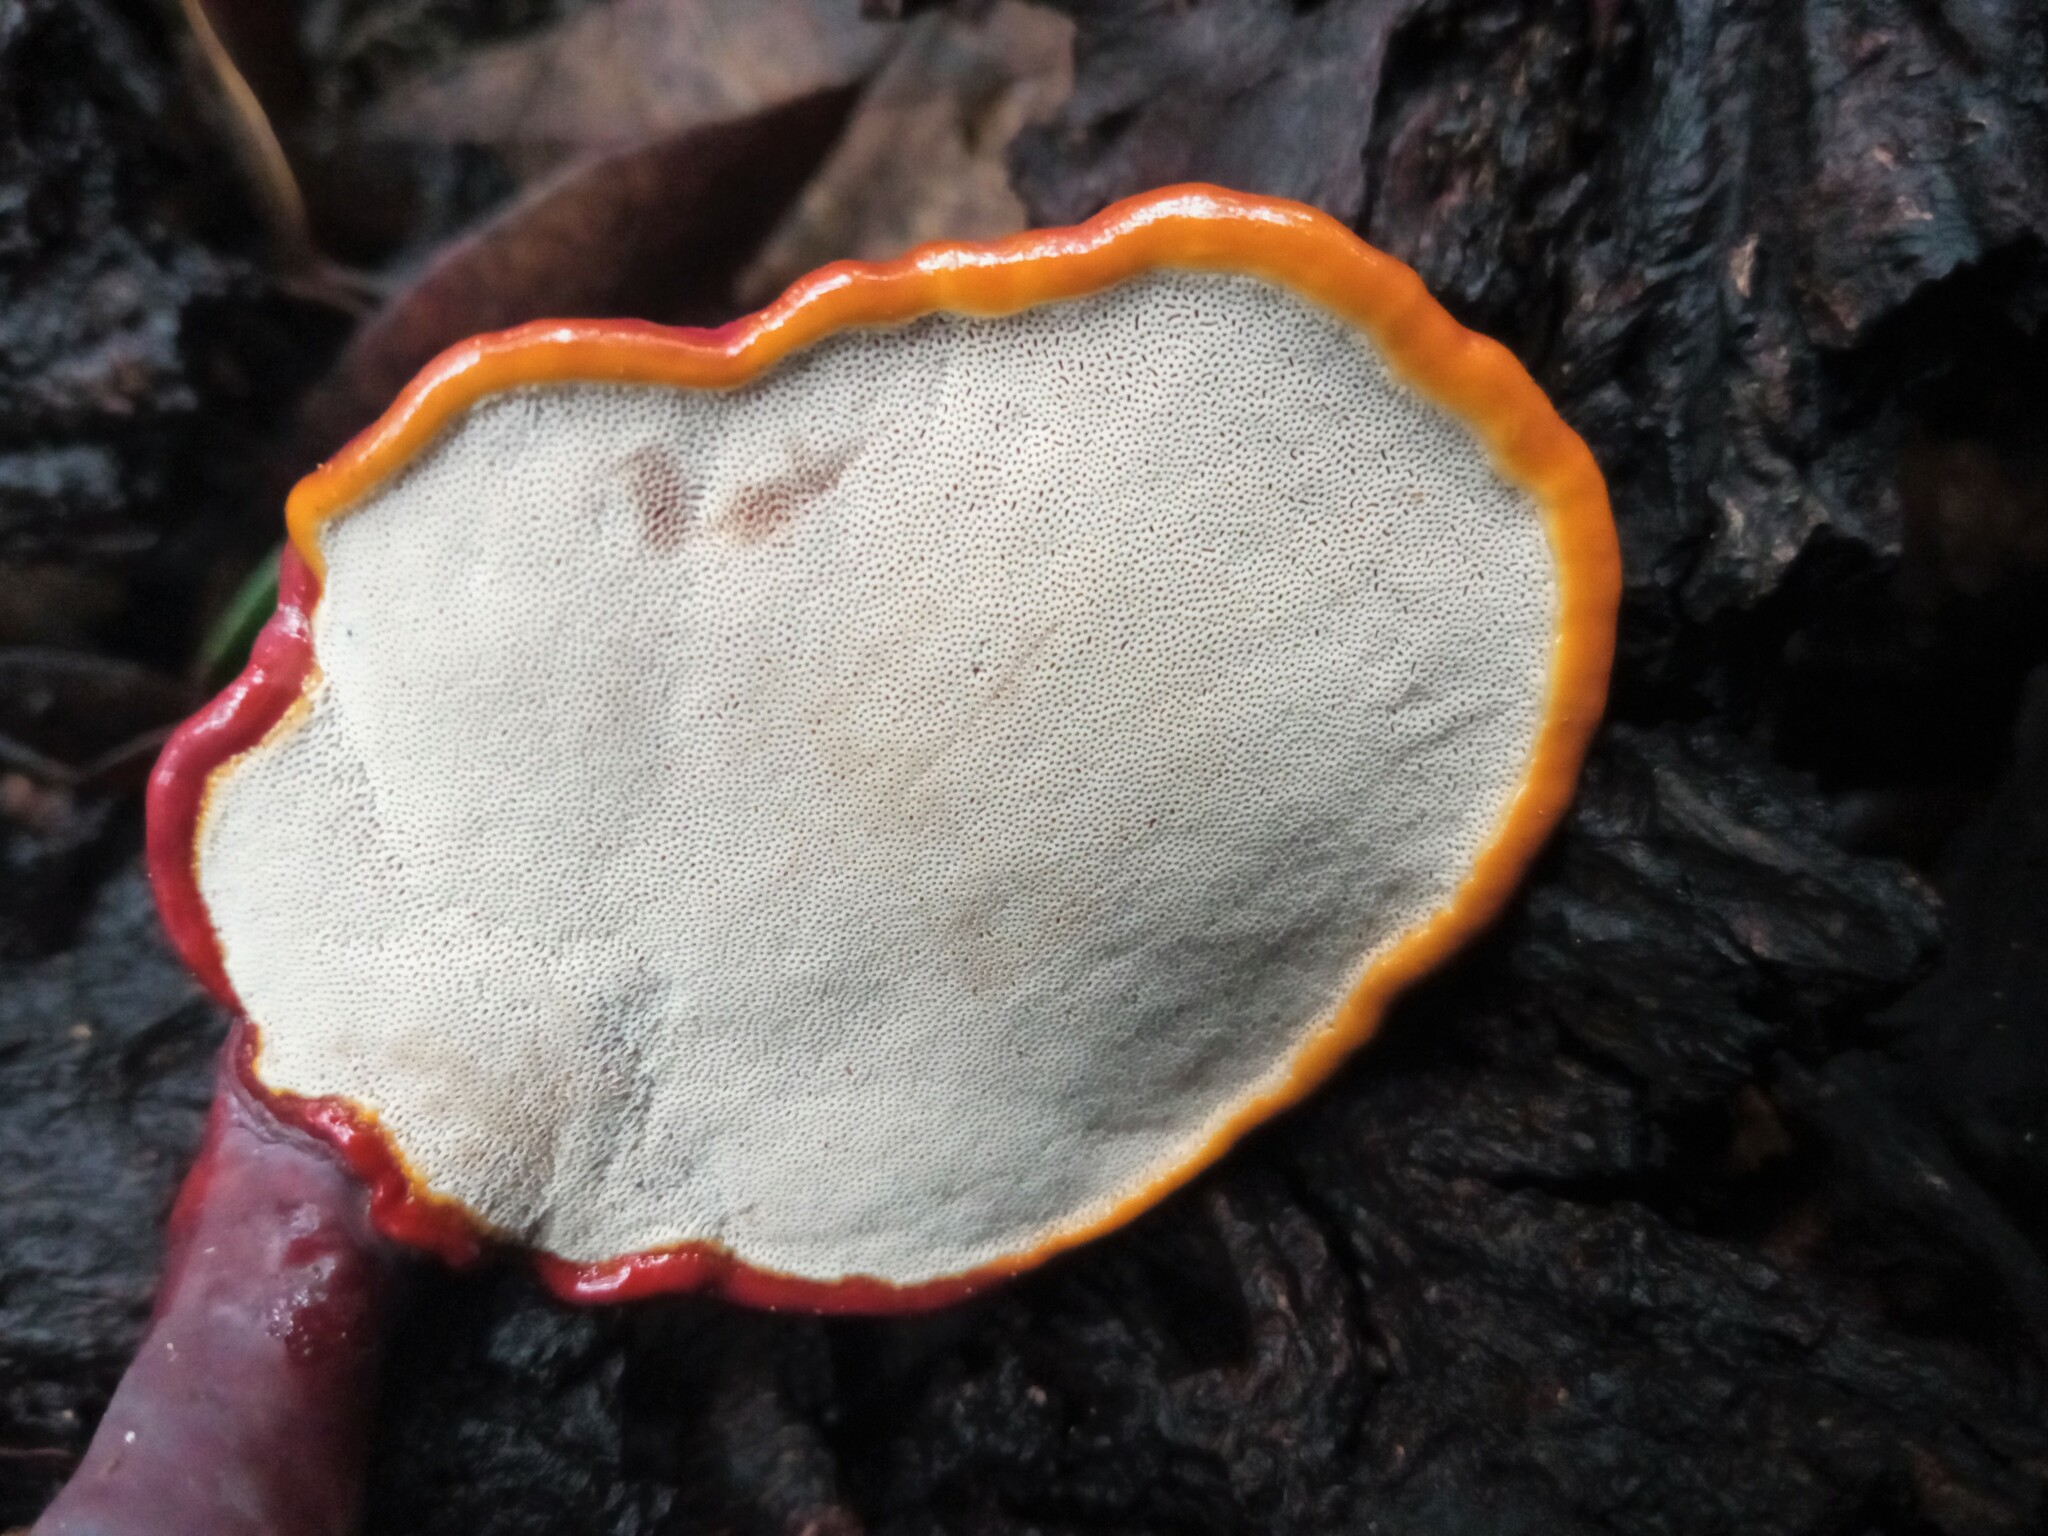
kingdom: Fungi
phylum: Basidiomycota
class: Agaricomycetes
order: Polyporales
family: Polyporaceae
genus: Ganoderma
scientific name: Ganoderma lucidum
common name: Lacquered bracket
